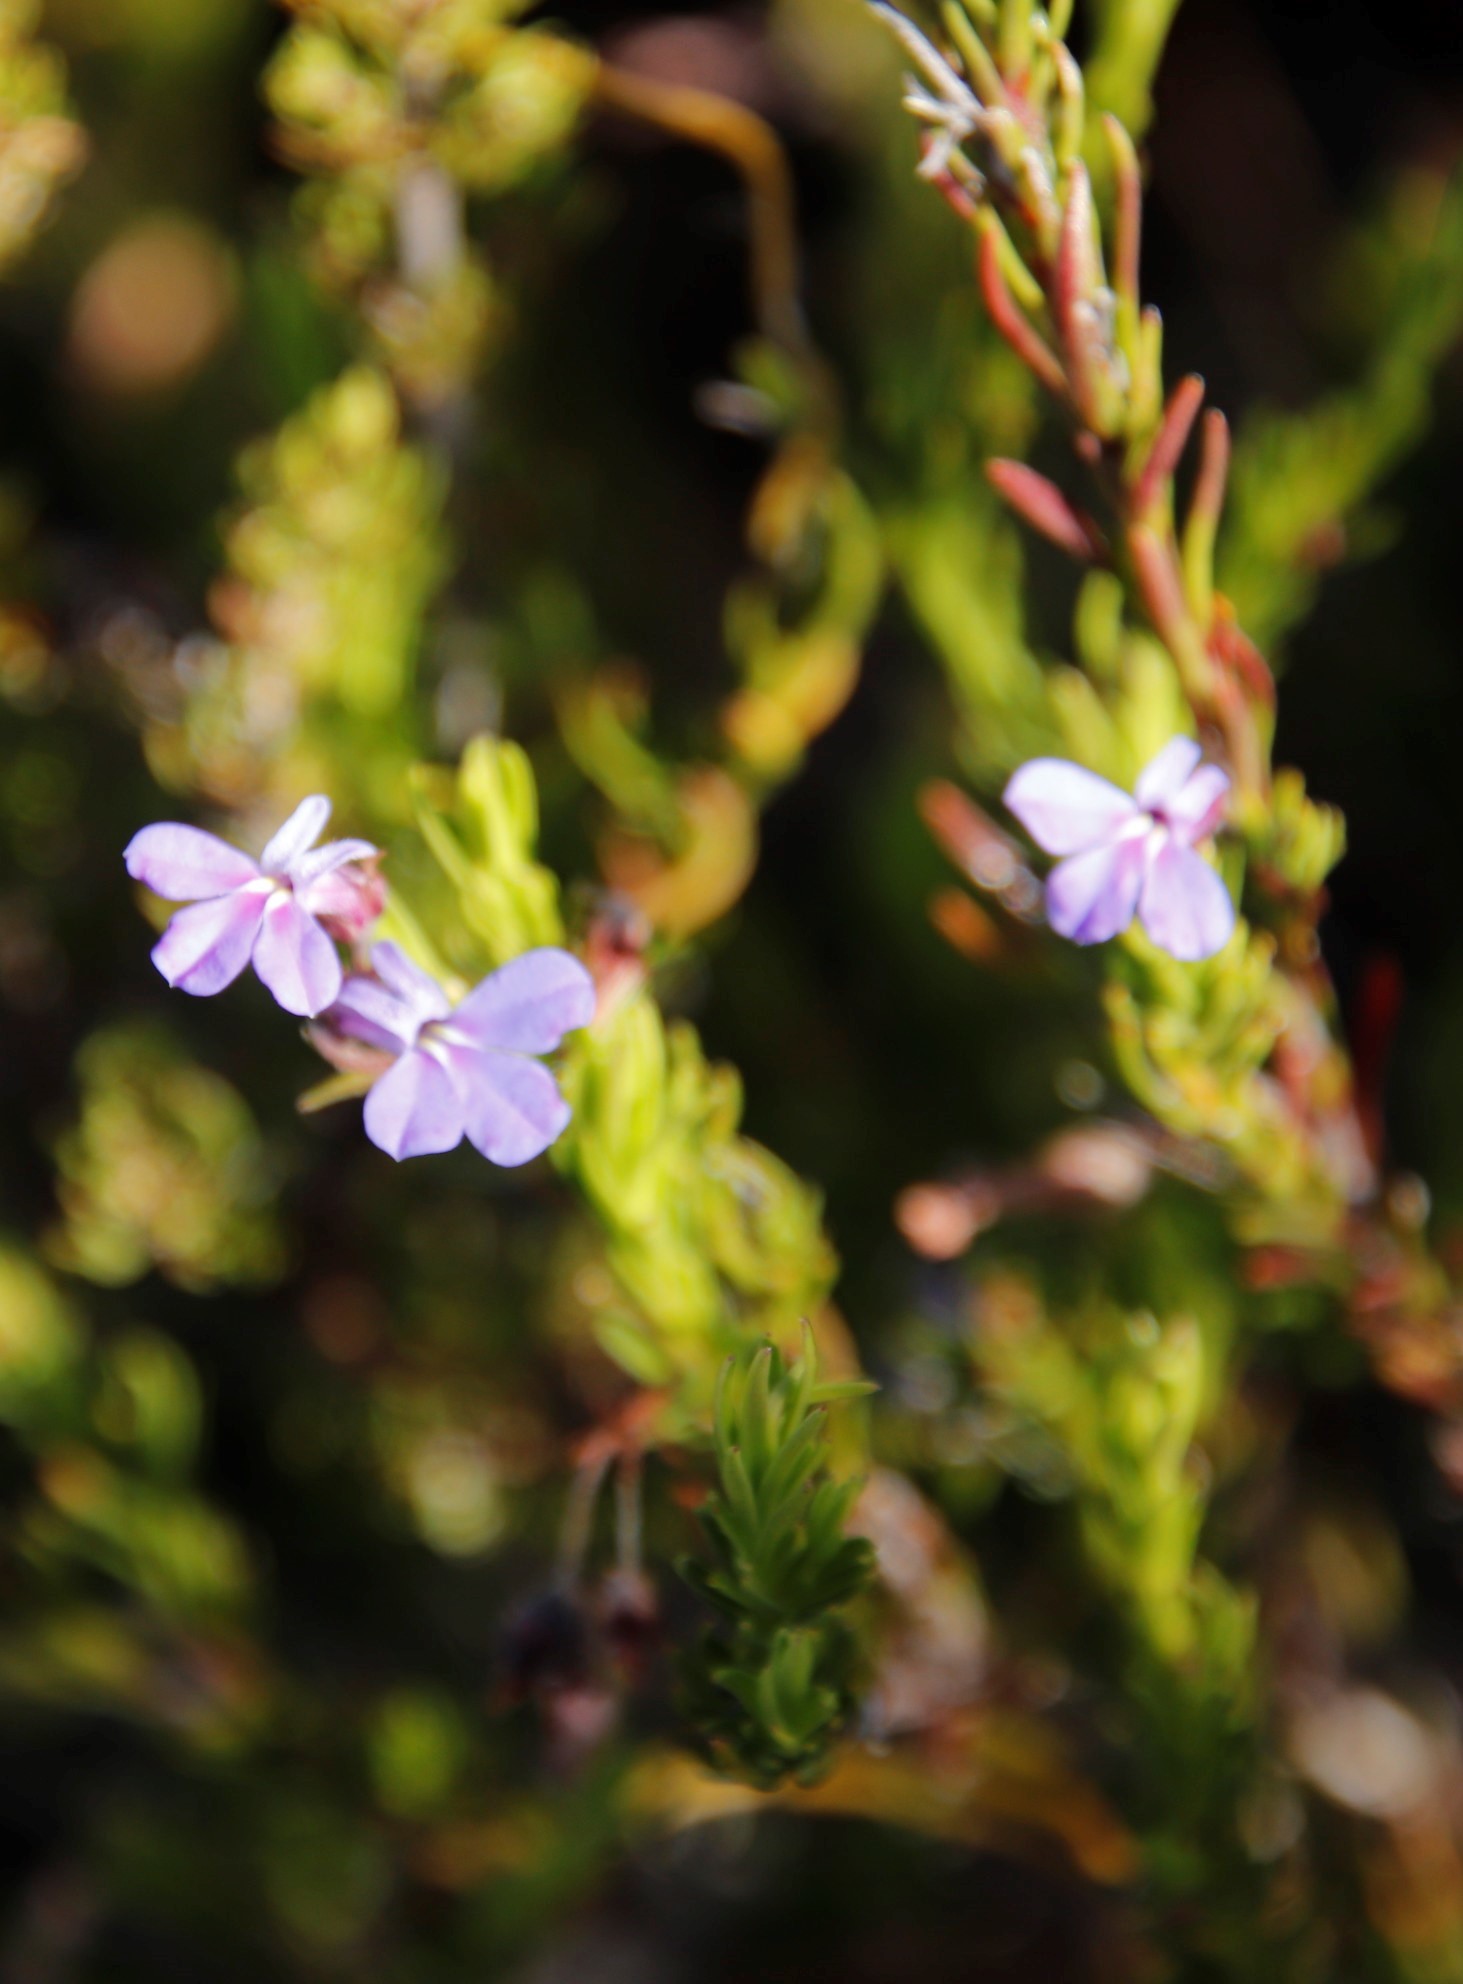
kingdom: Plantae
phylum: Tracheophyta
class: Magnoliopsida
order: Asterales
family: Campanulaceae
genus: Lobelia
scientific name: Lobelia pinifolia
